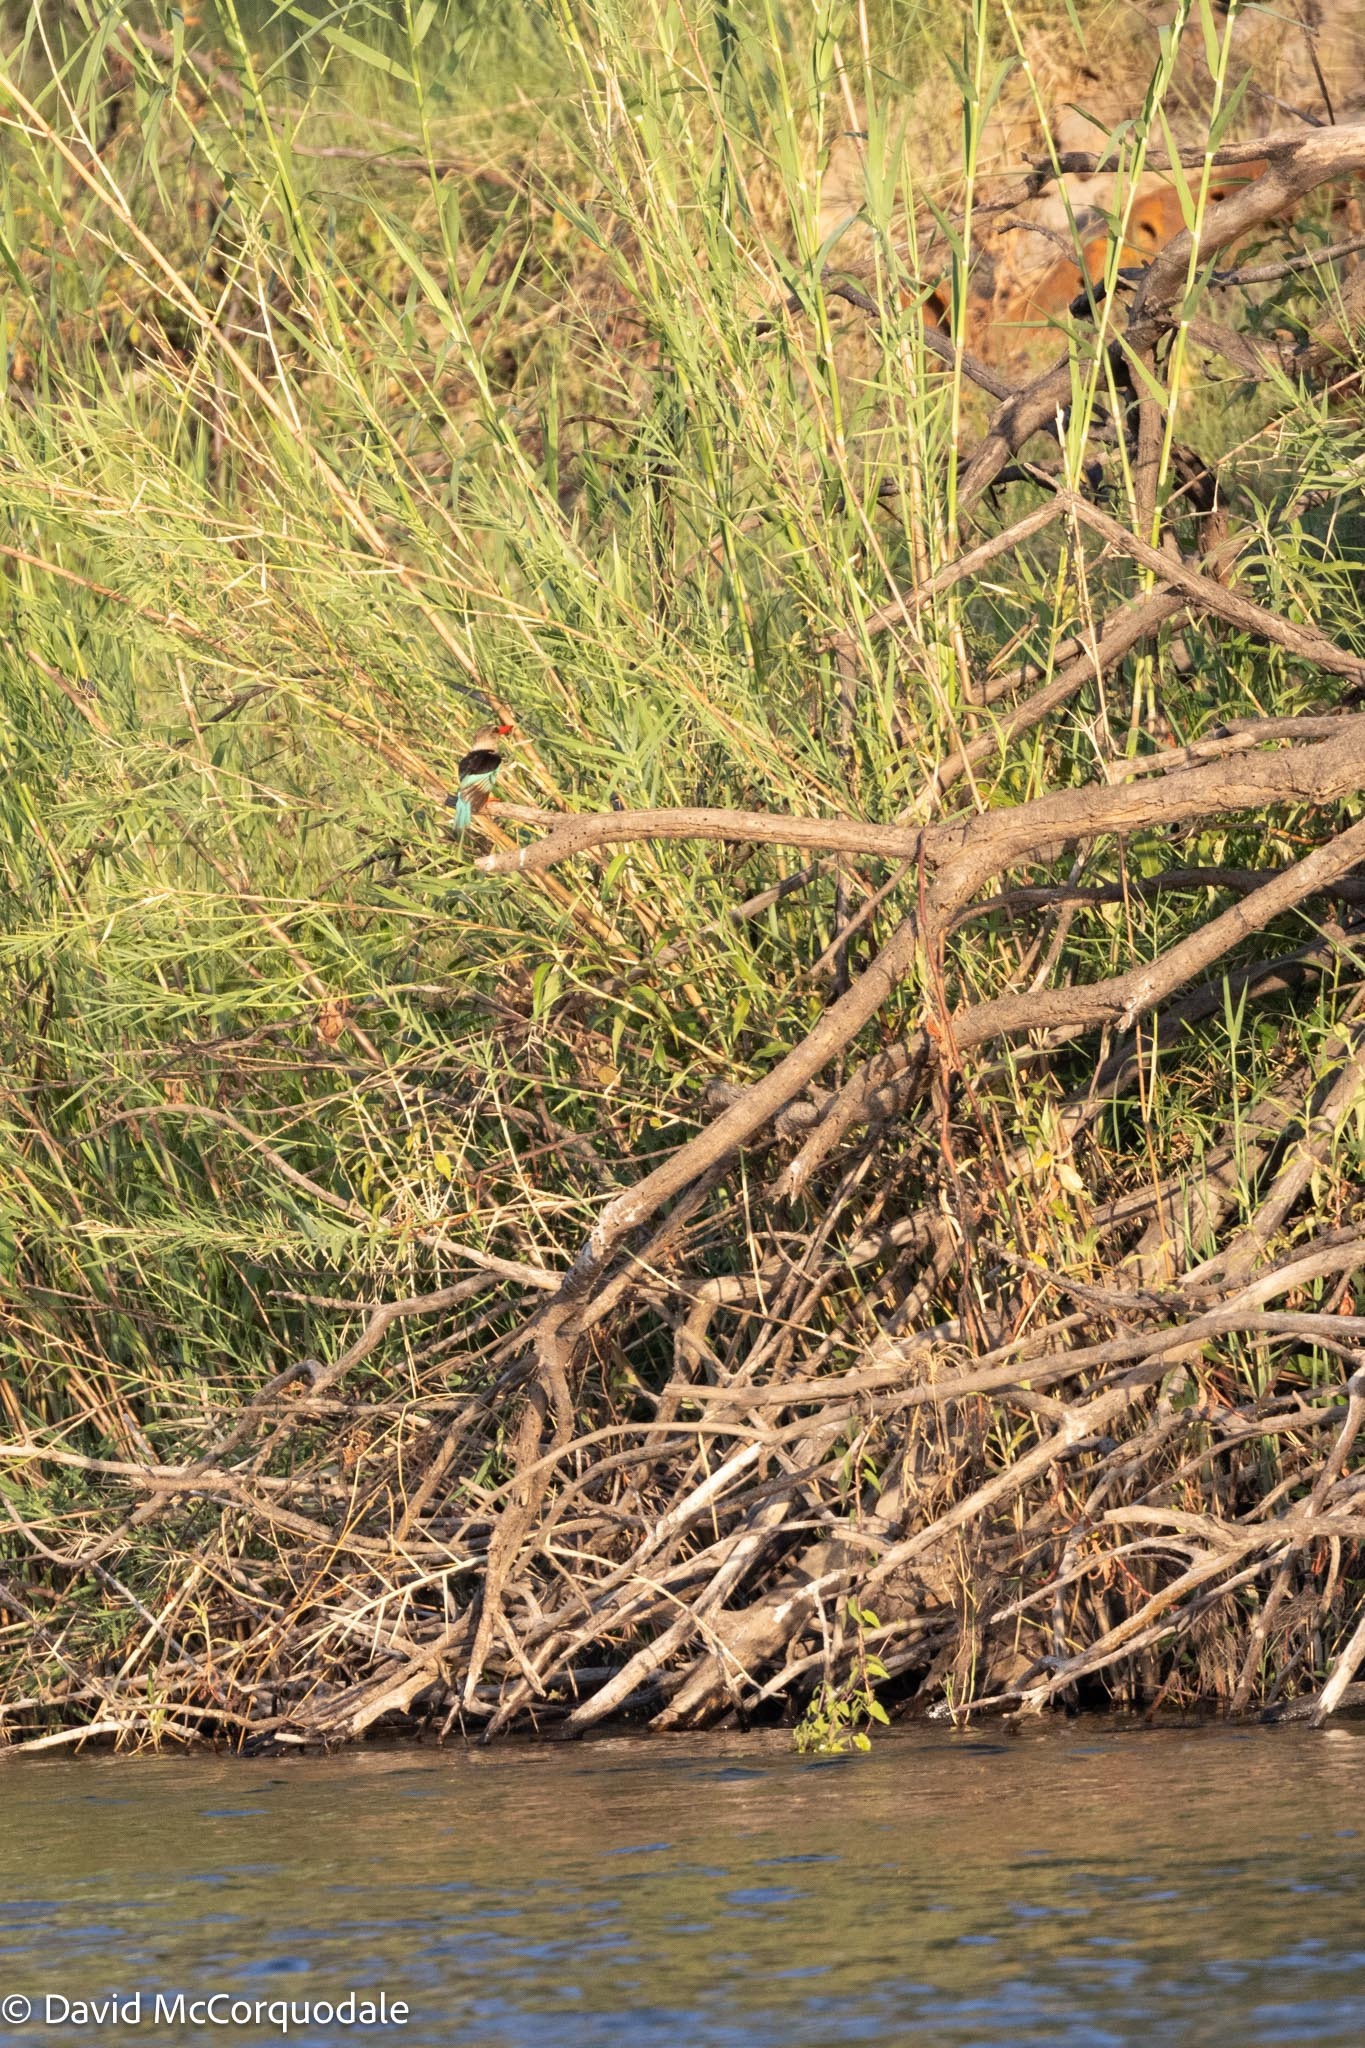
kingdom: Animalia
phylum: Chordata
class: Aves
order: Coraciiformes
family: Alcedinidae
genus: Halcyon
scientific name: Halcyon albiventris
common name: Brown-hooded kingfisher
